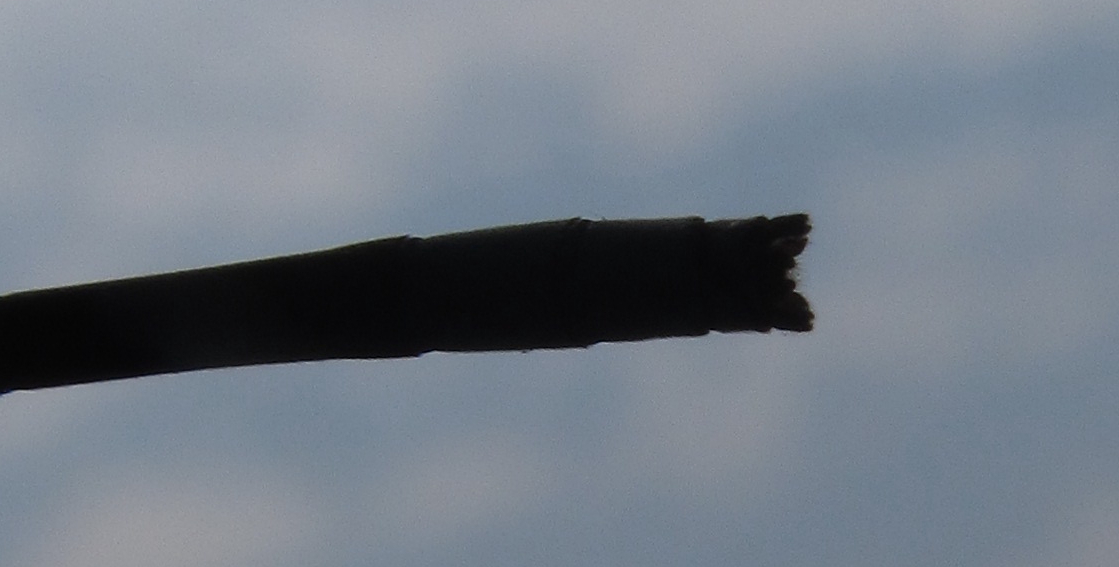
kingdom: Animalia
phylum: Arthropoda
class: Insecta
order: Odonata
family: Coenagrionidae
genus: Pseudagrion
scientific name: Pseudagrion glaucescens
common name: Blue-green sprite
